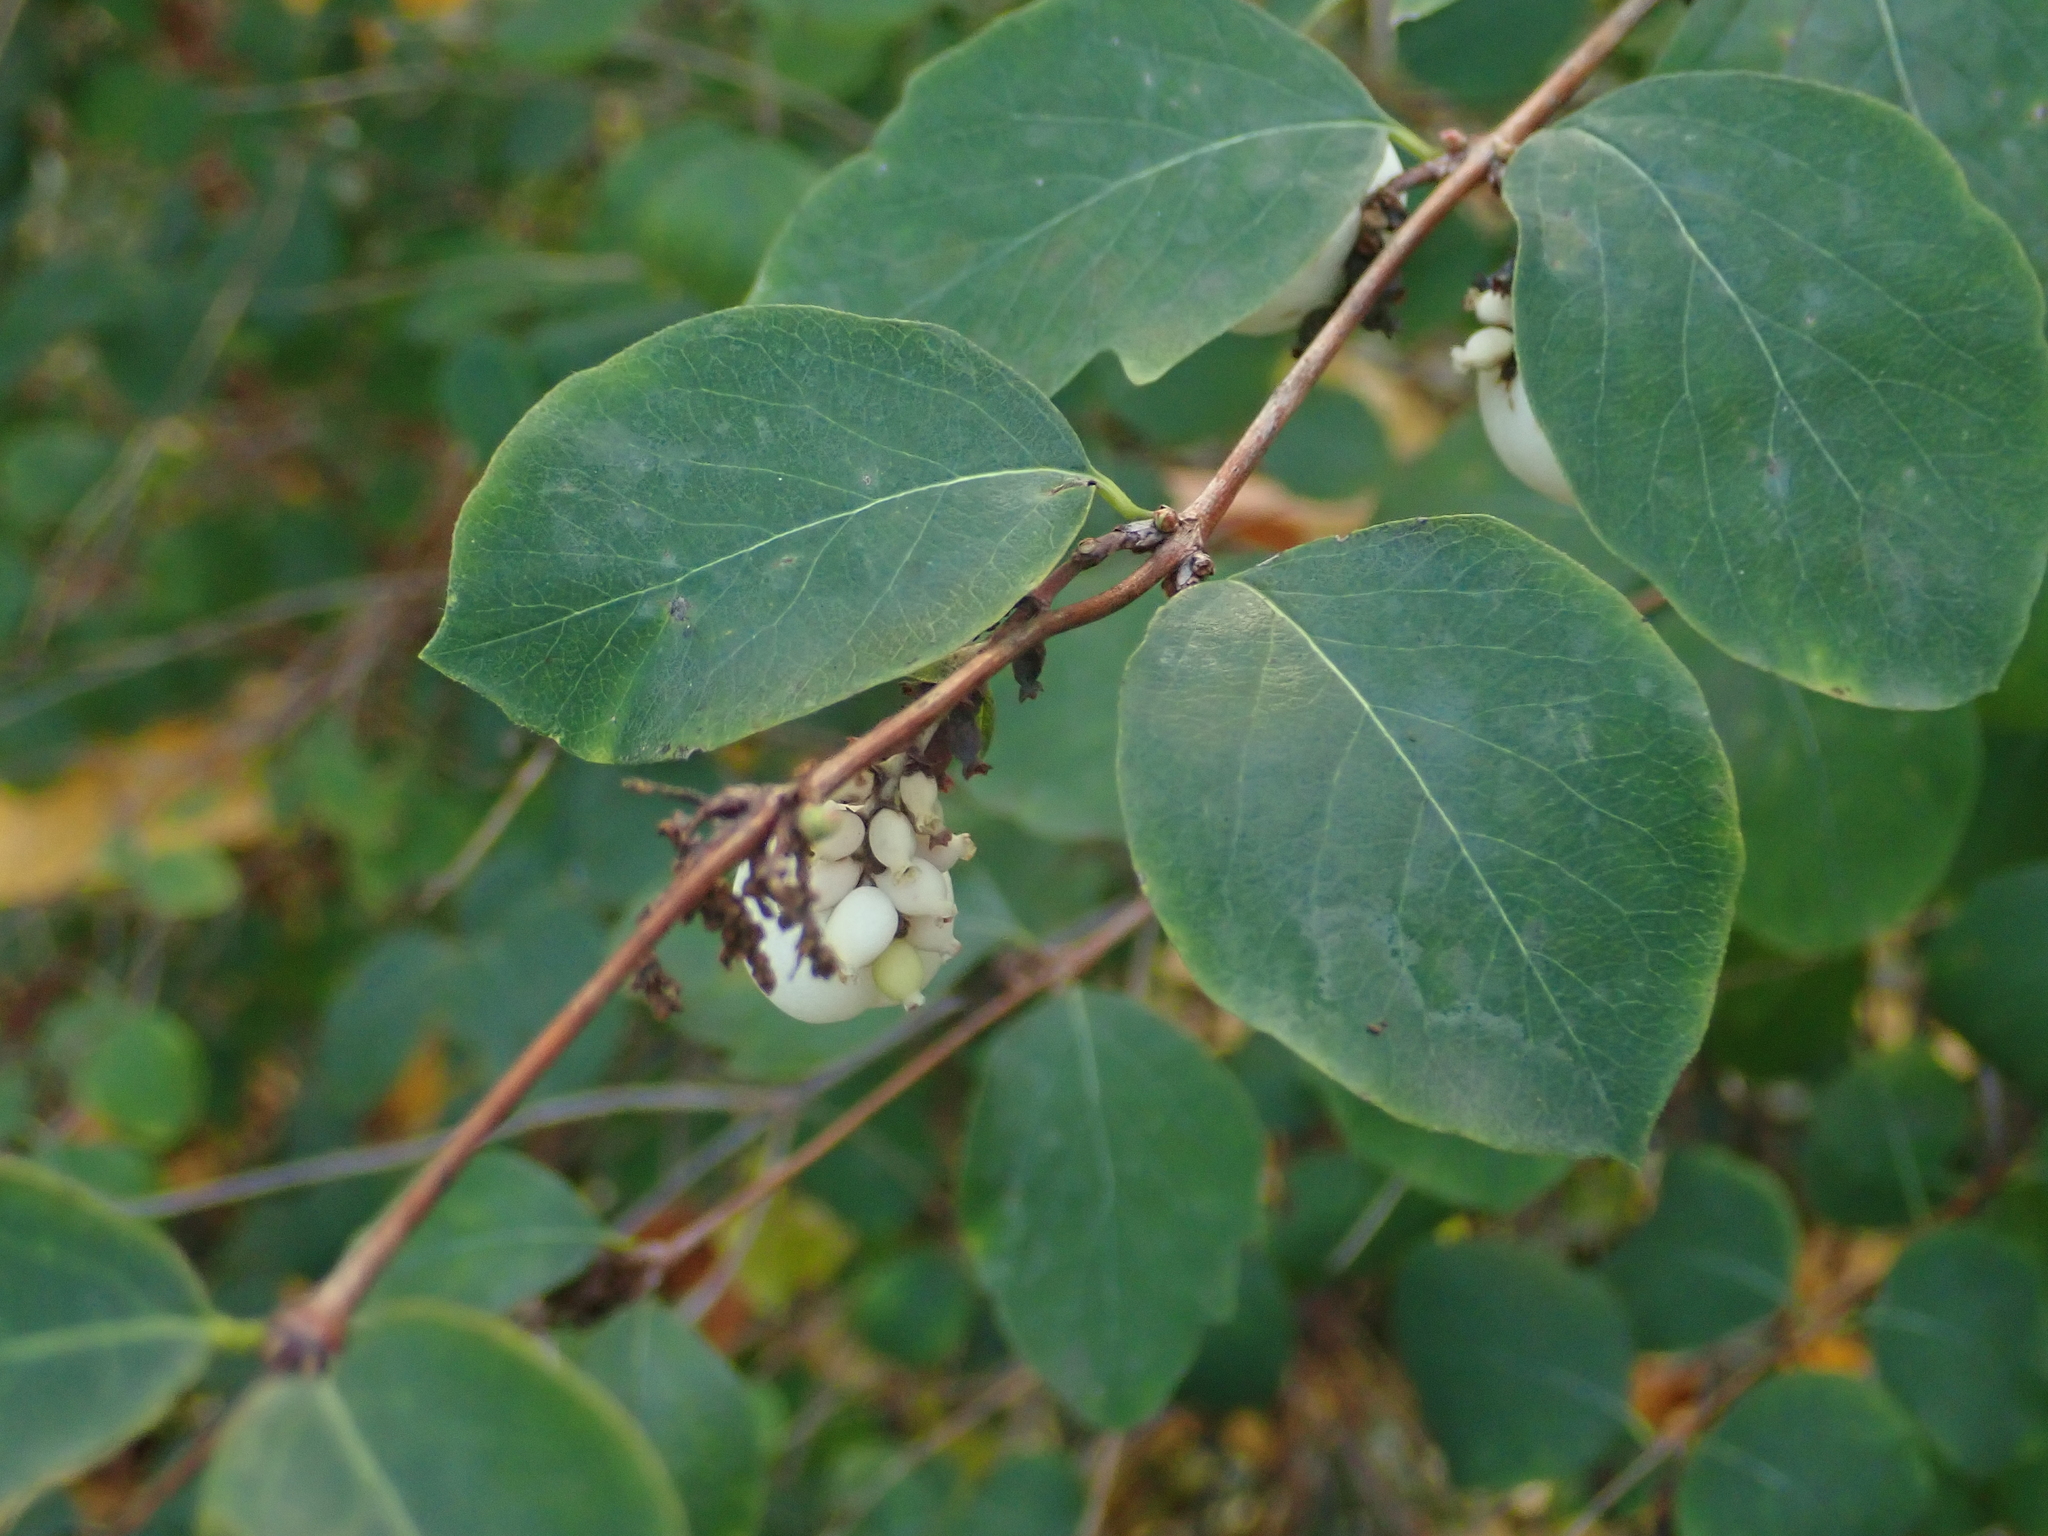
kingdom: Plantae
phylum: Tracheophyta
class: Magnoliopsida
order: Dipsacales
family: Caprifoliaceae
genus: Symphoricarpos
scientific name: Symphoricarpos albus
